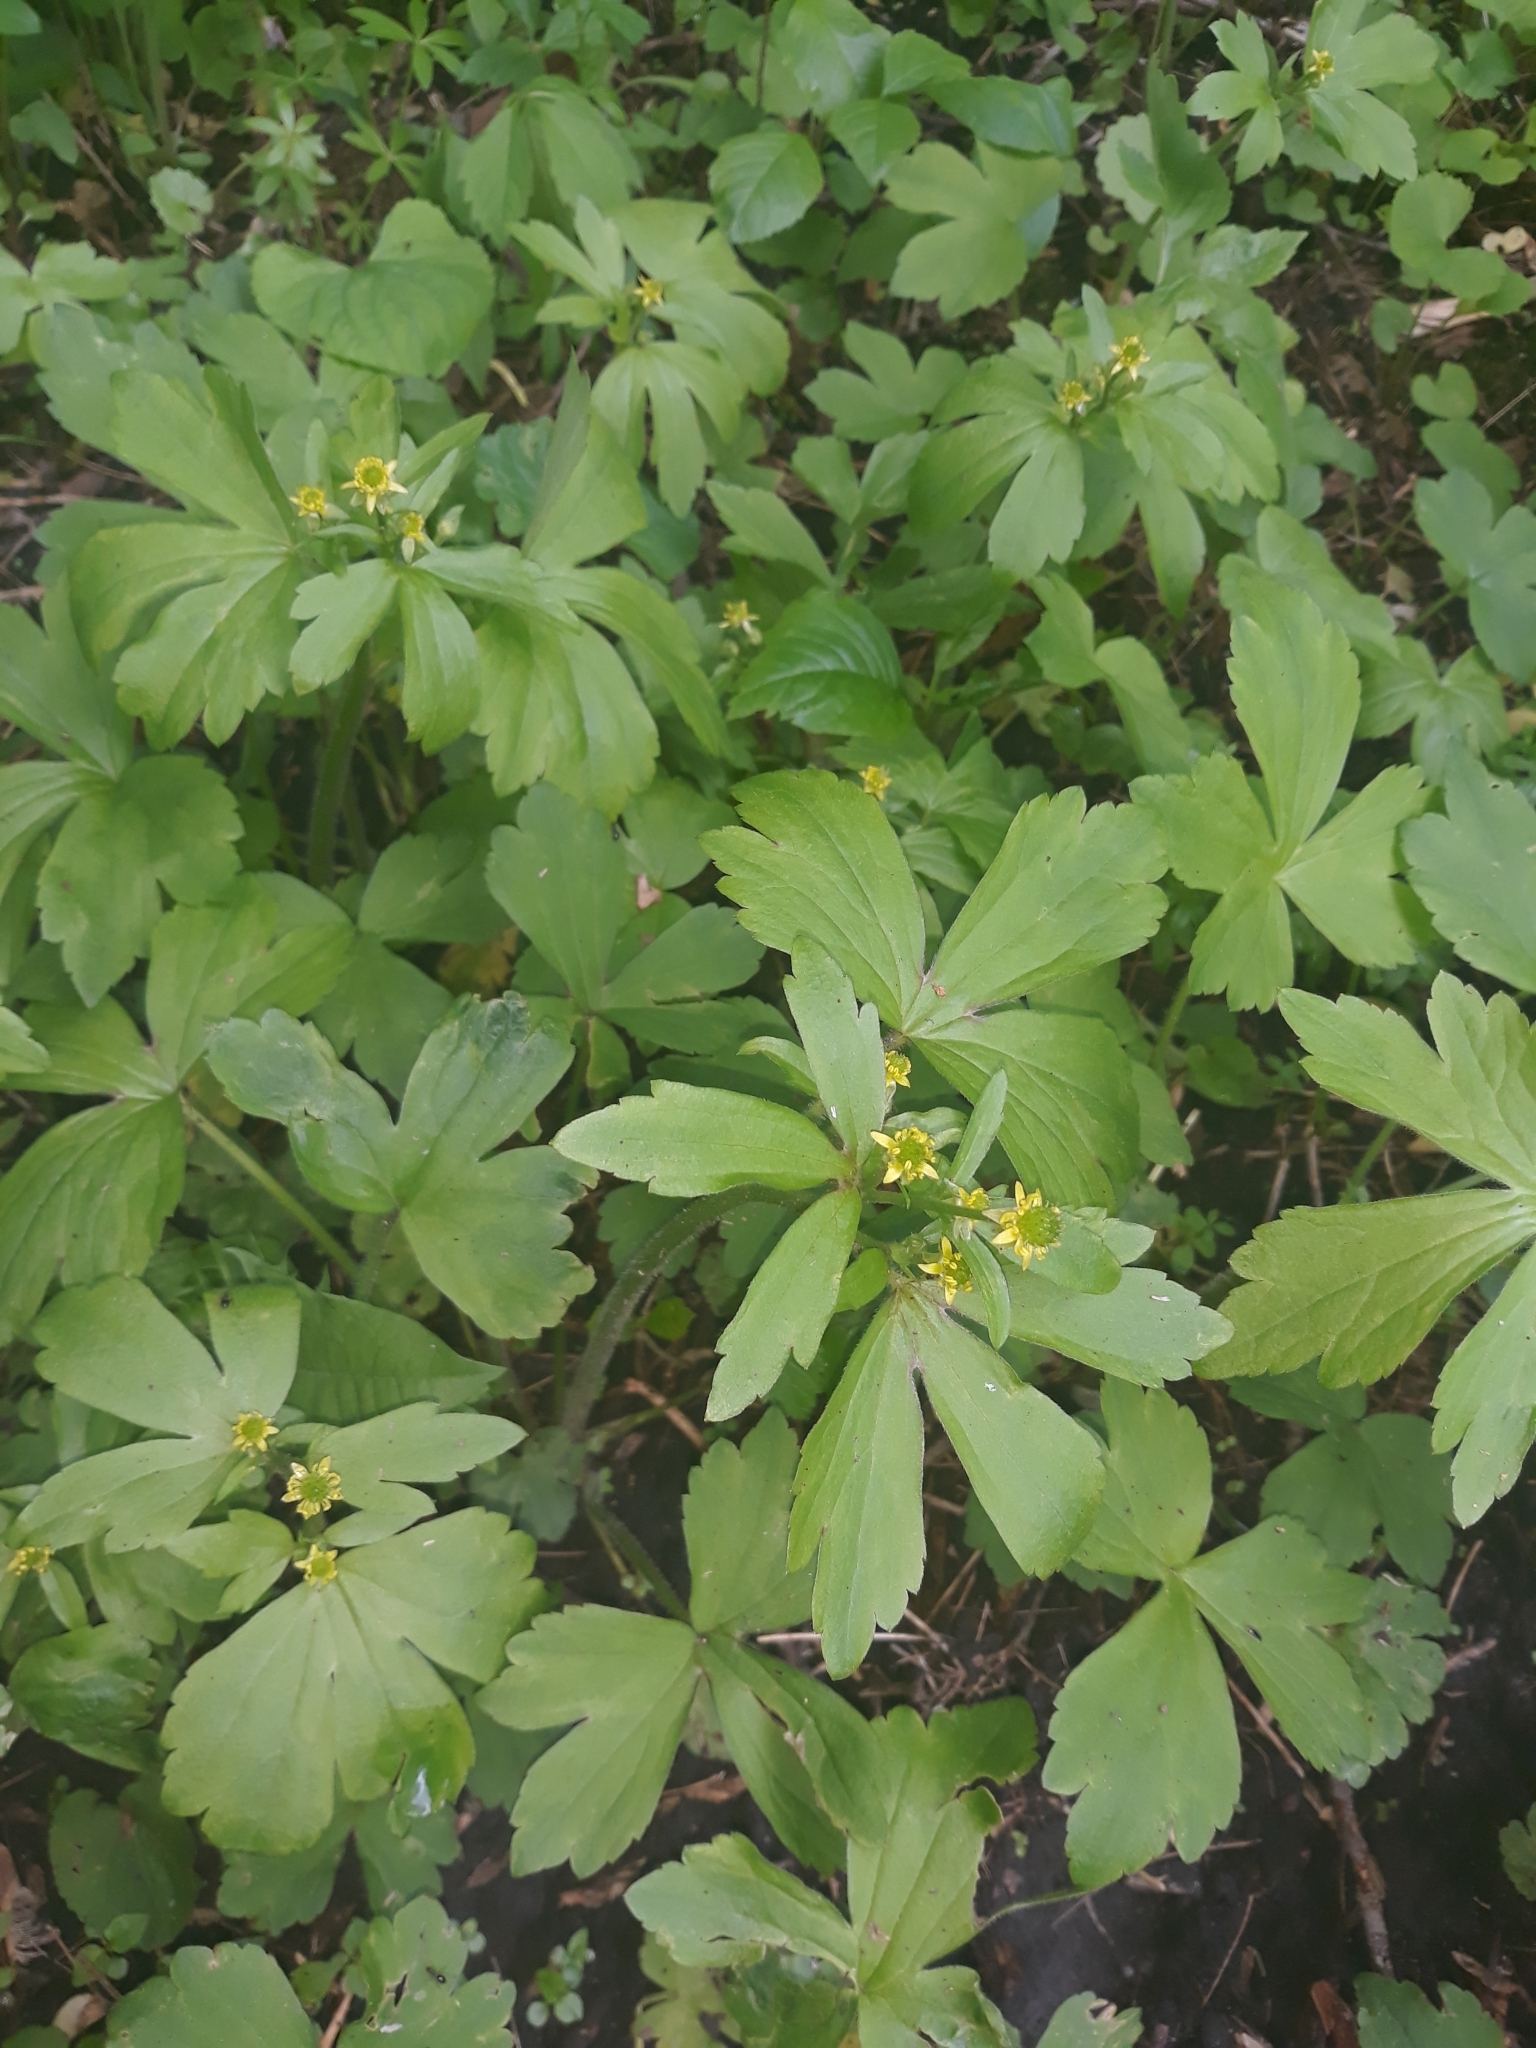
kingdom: Plantae
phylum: Tracheophyta
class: Magnoliopsida
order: Ranunculales
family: Ranunculaceae
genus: Ranunculus
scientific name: Ranunculus recurvatus
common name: Blisterwort
